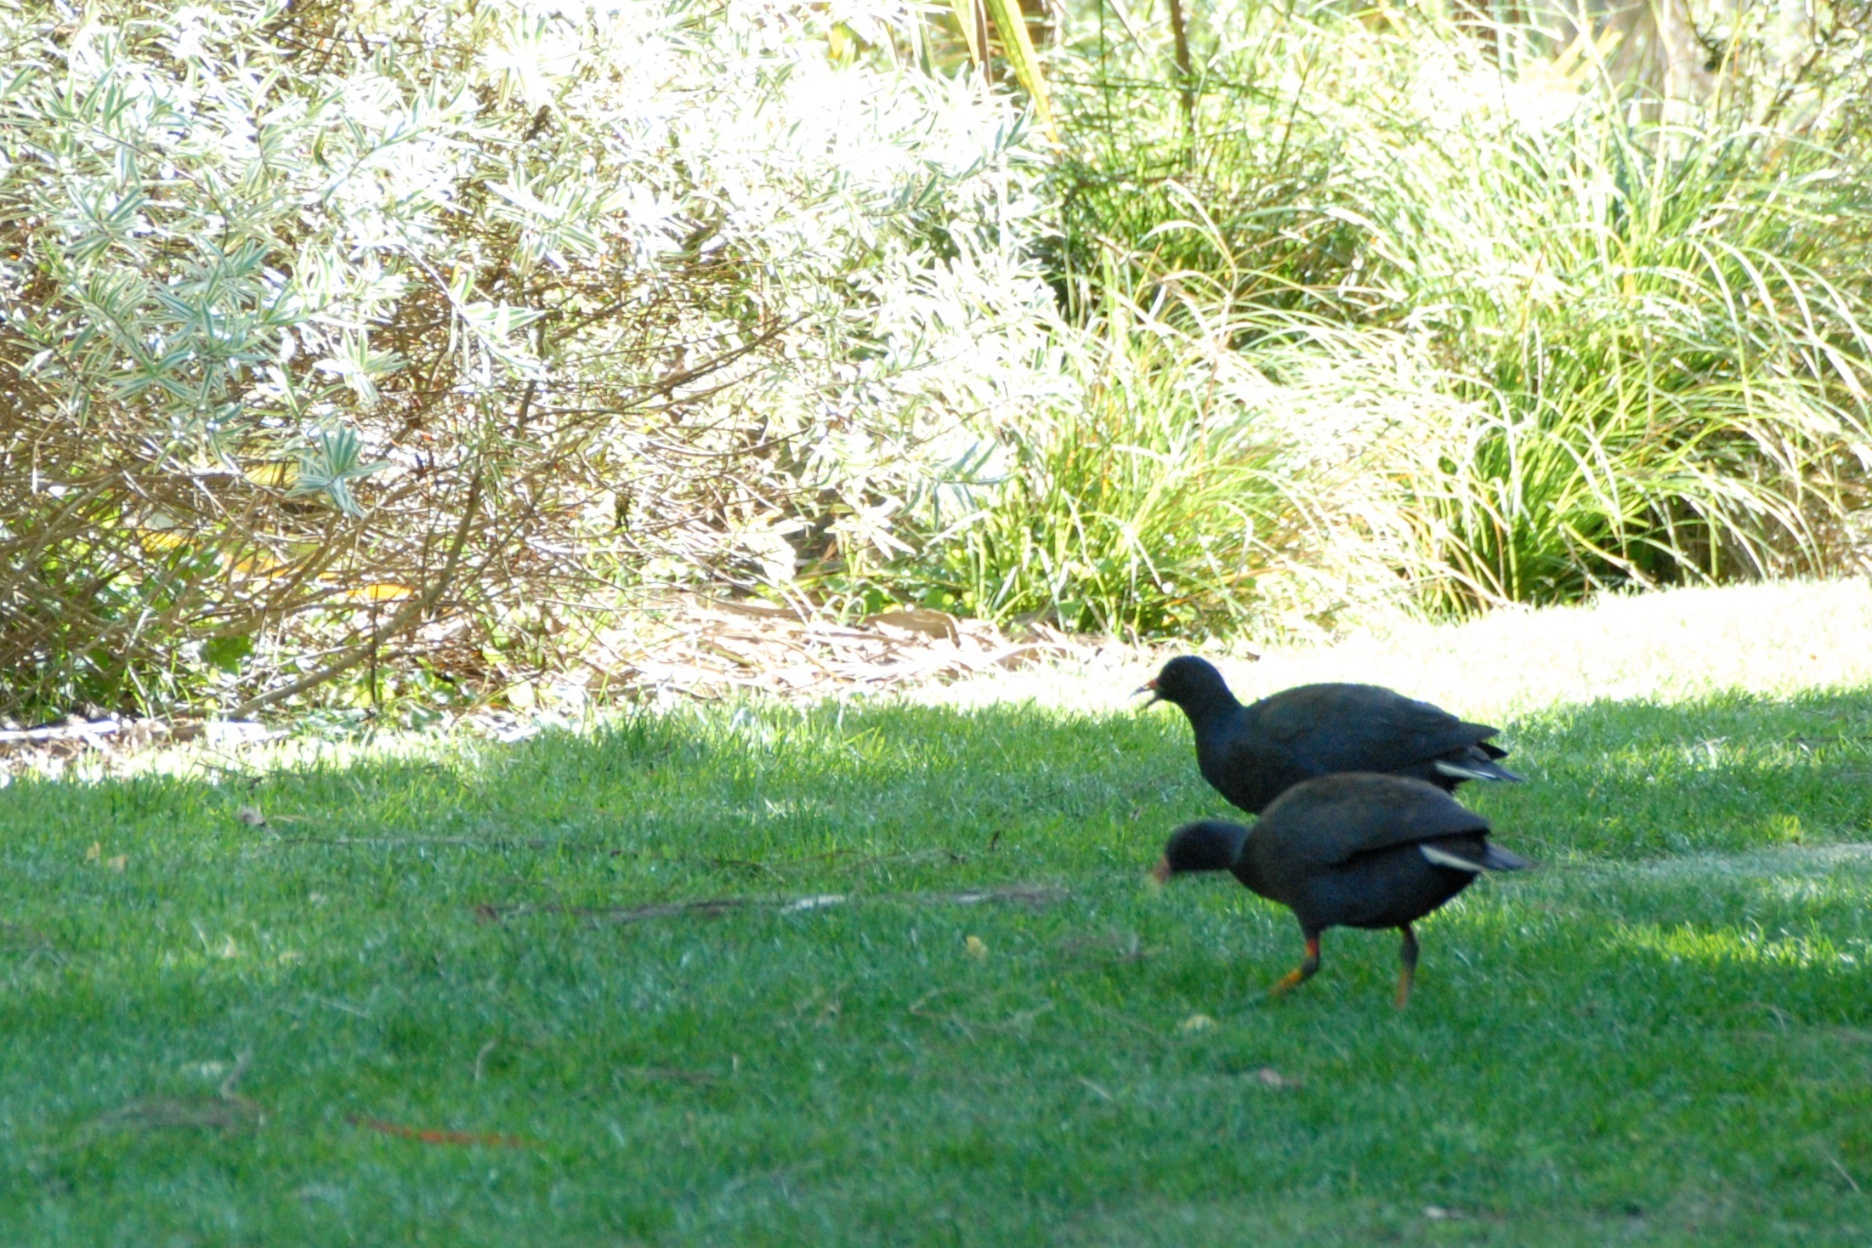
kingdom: Animalia
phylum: Chordata
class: Aves
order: Gruiformes
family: Rallidae
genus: Gallinula
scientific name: Gallinula tenebrosa
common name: Dusky moorhen
